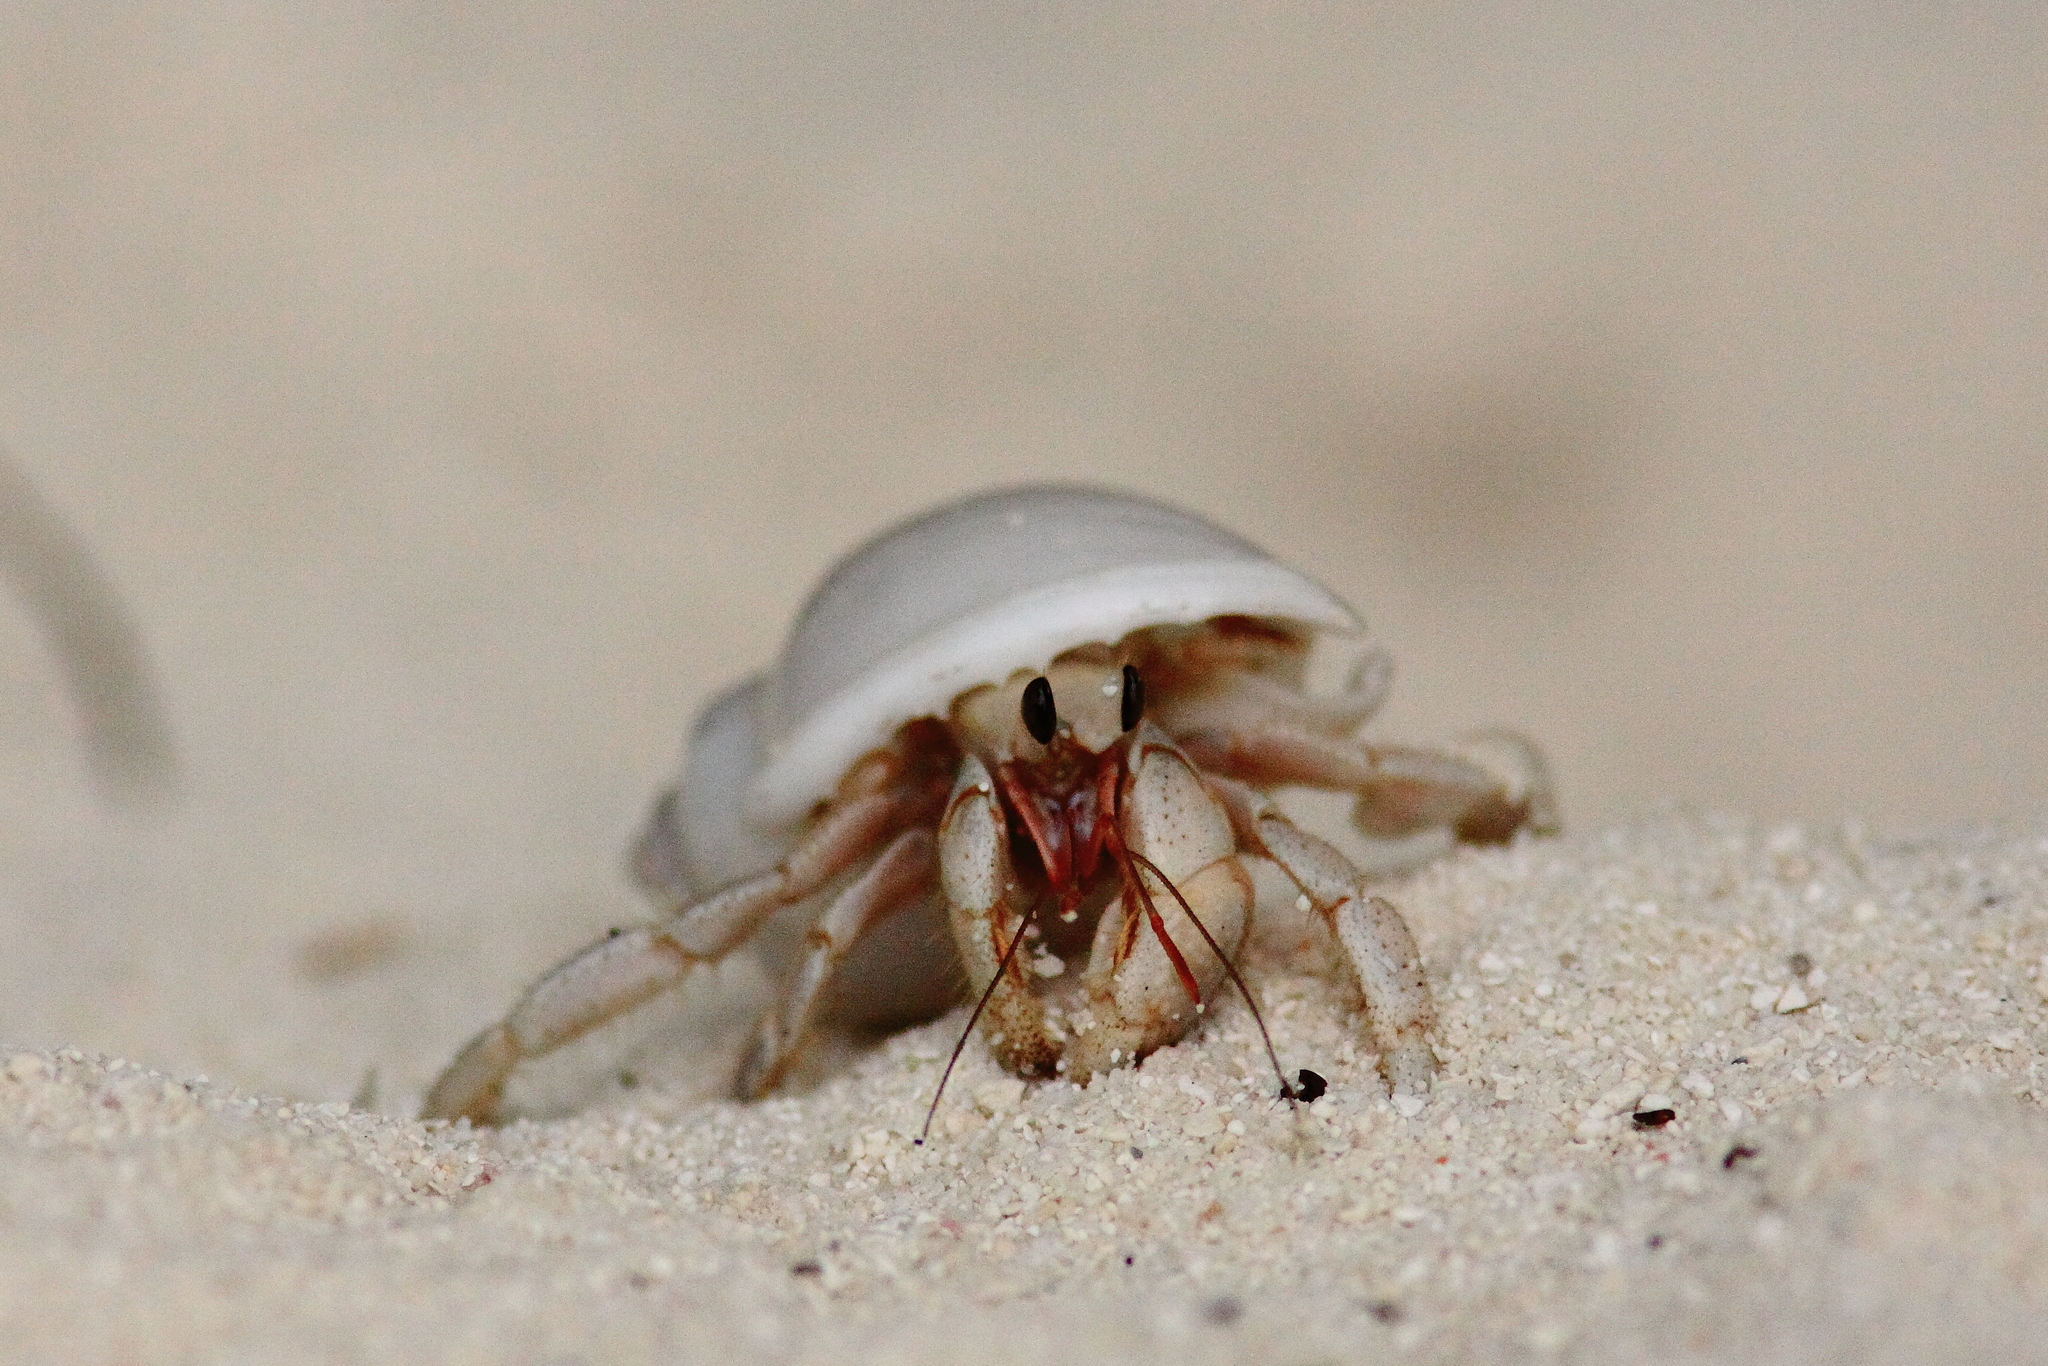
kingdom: Animalia
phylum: Arthropoda
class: Malacostraca
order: Decapoda
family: Coenobitidae
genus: Coenobita
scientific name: Coenobita rugosus
